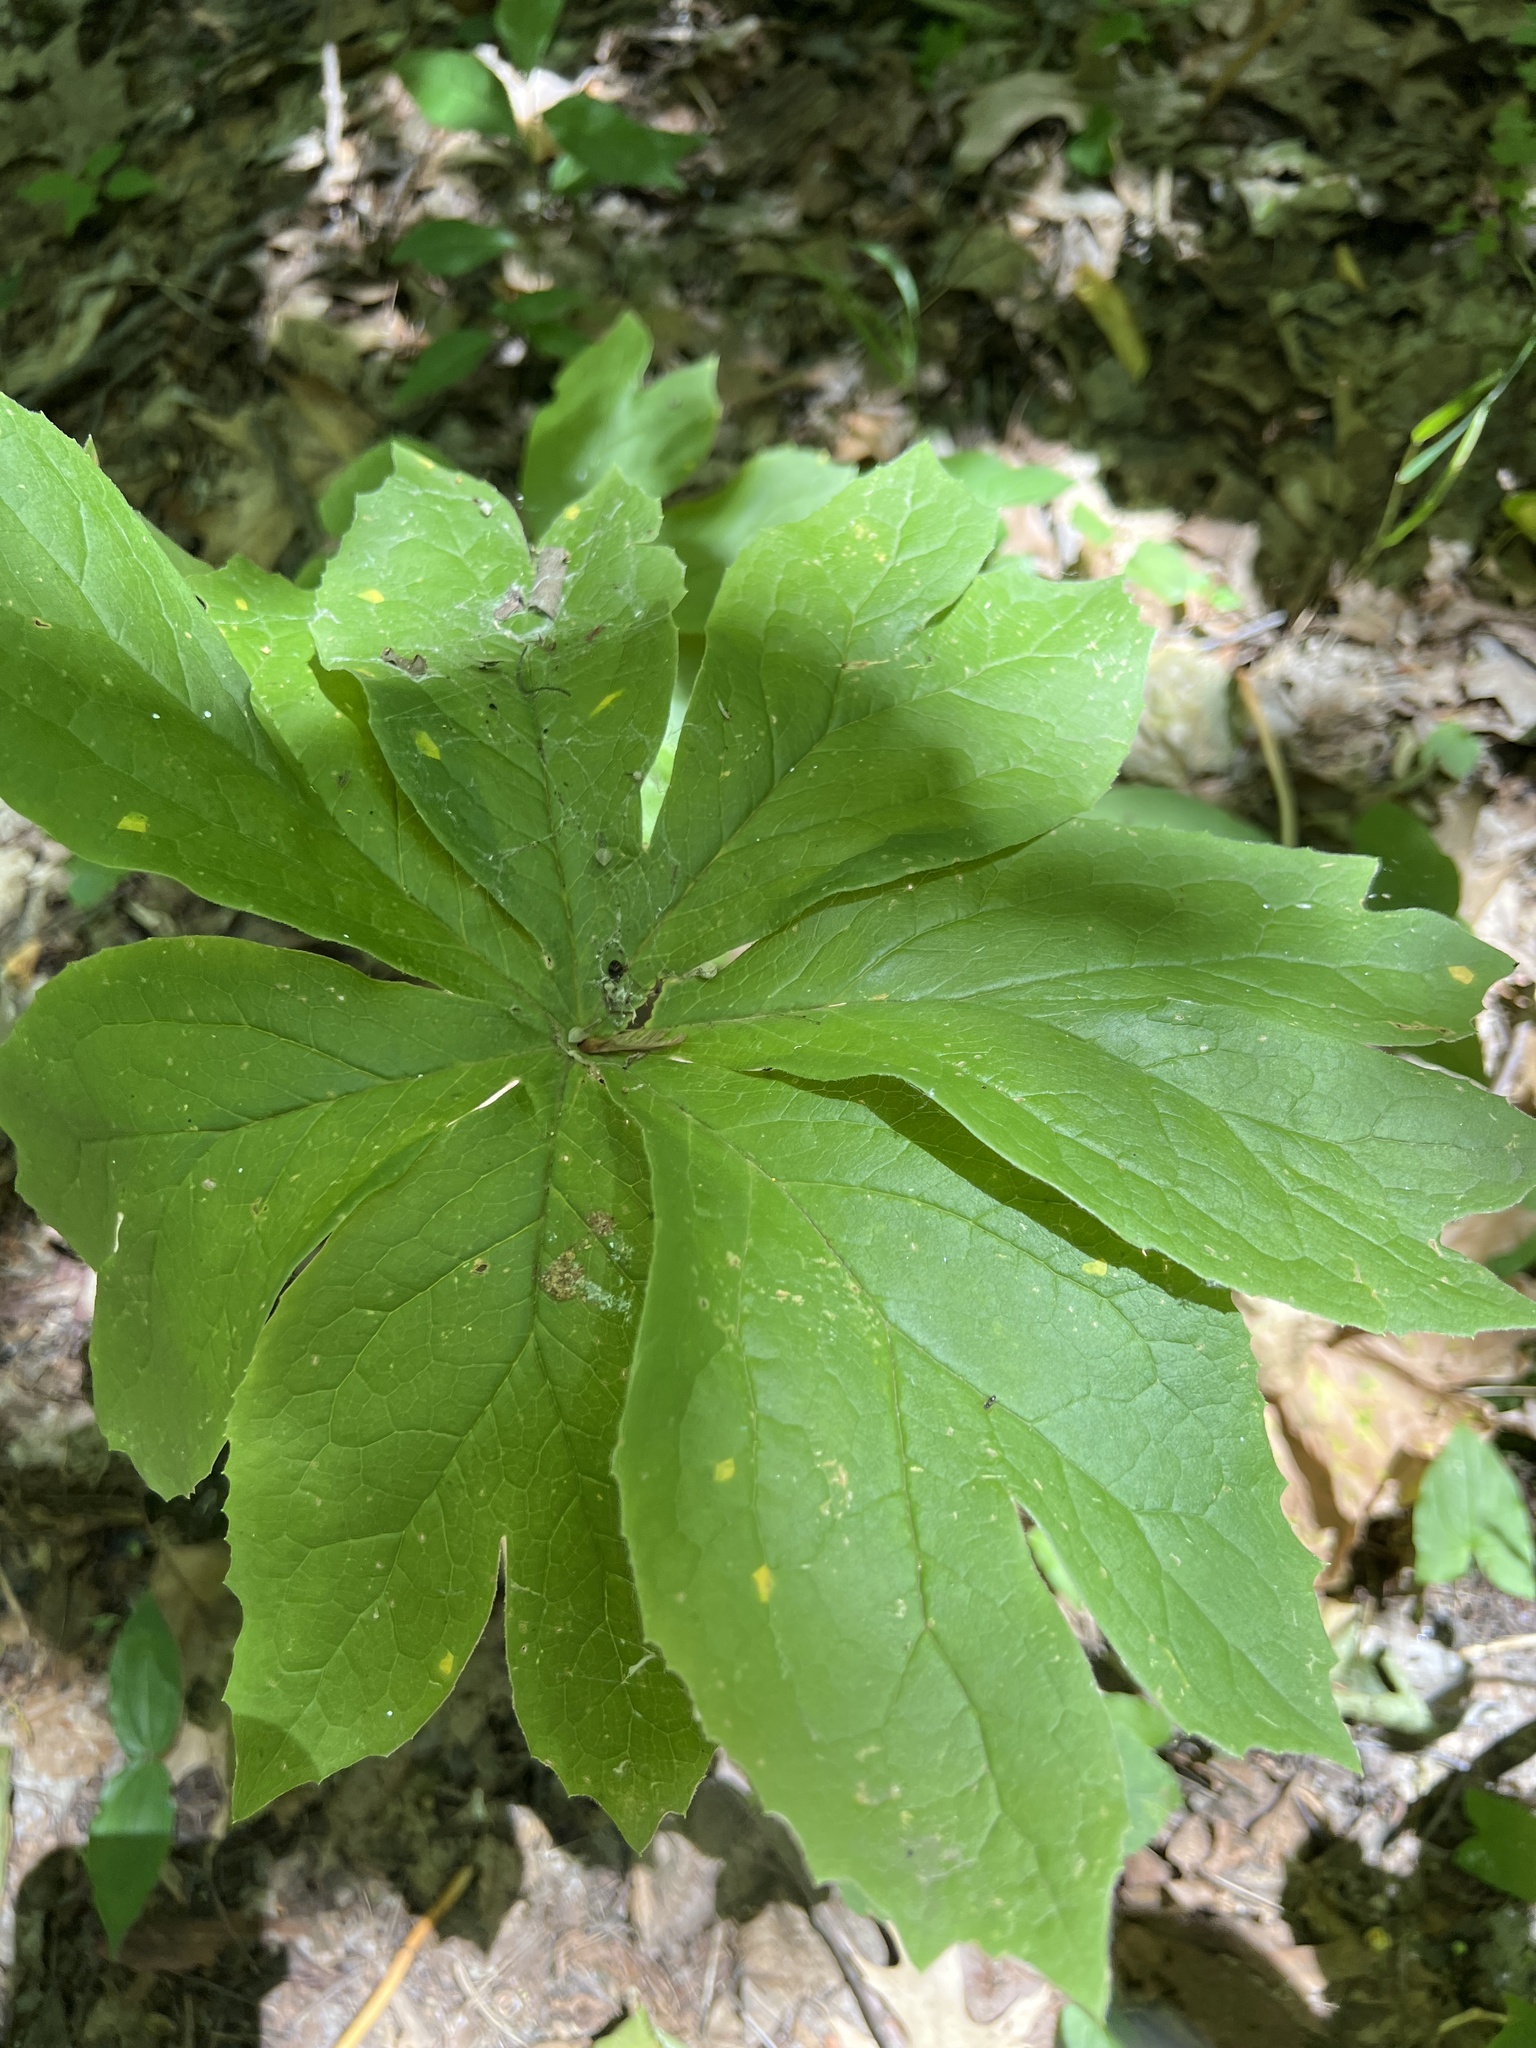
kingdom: Plantae
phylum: Tracheophyta
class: Magnoliopsida
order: Ranunculales
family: Berberidaceae
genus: Podophyllum
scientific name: Podophyllum peltatum
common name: Wild mandrake
